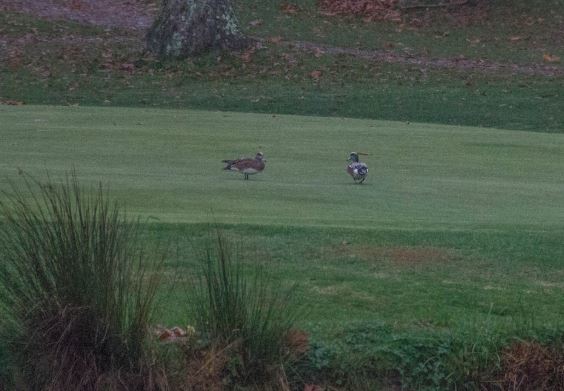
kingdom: Animalia
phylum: Chordata
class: Aves
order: Anseriformes
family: Anatidae
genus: Mareca
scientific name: Mareca americana
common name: American wigeon
